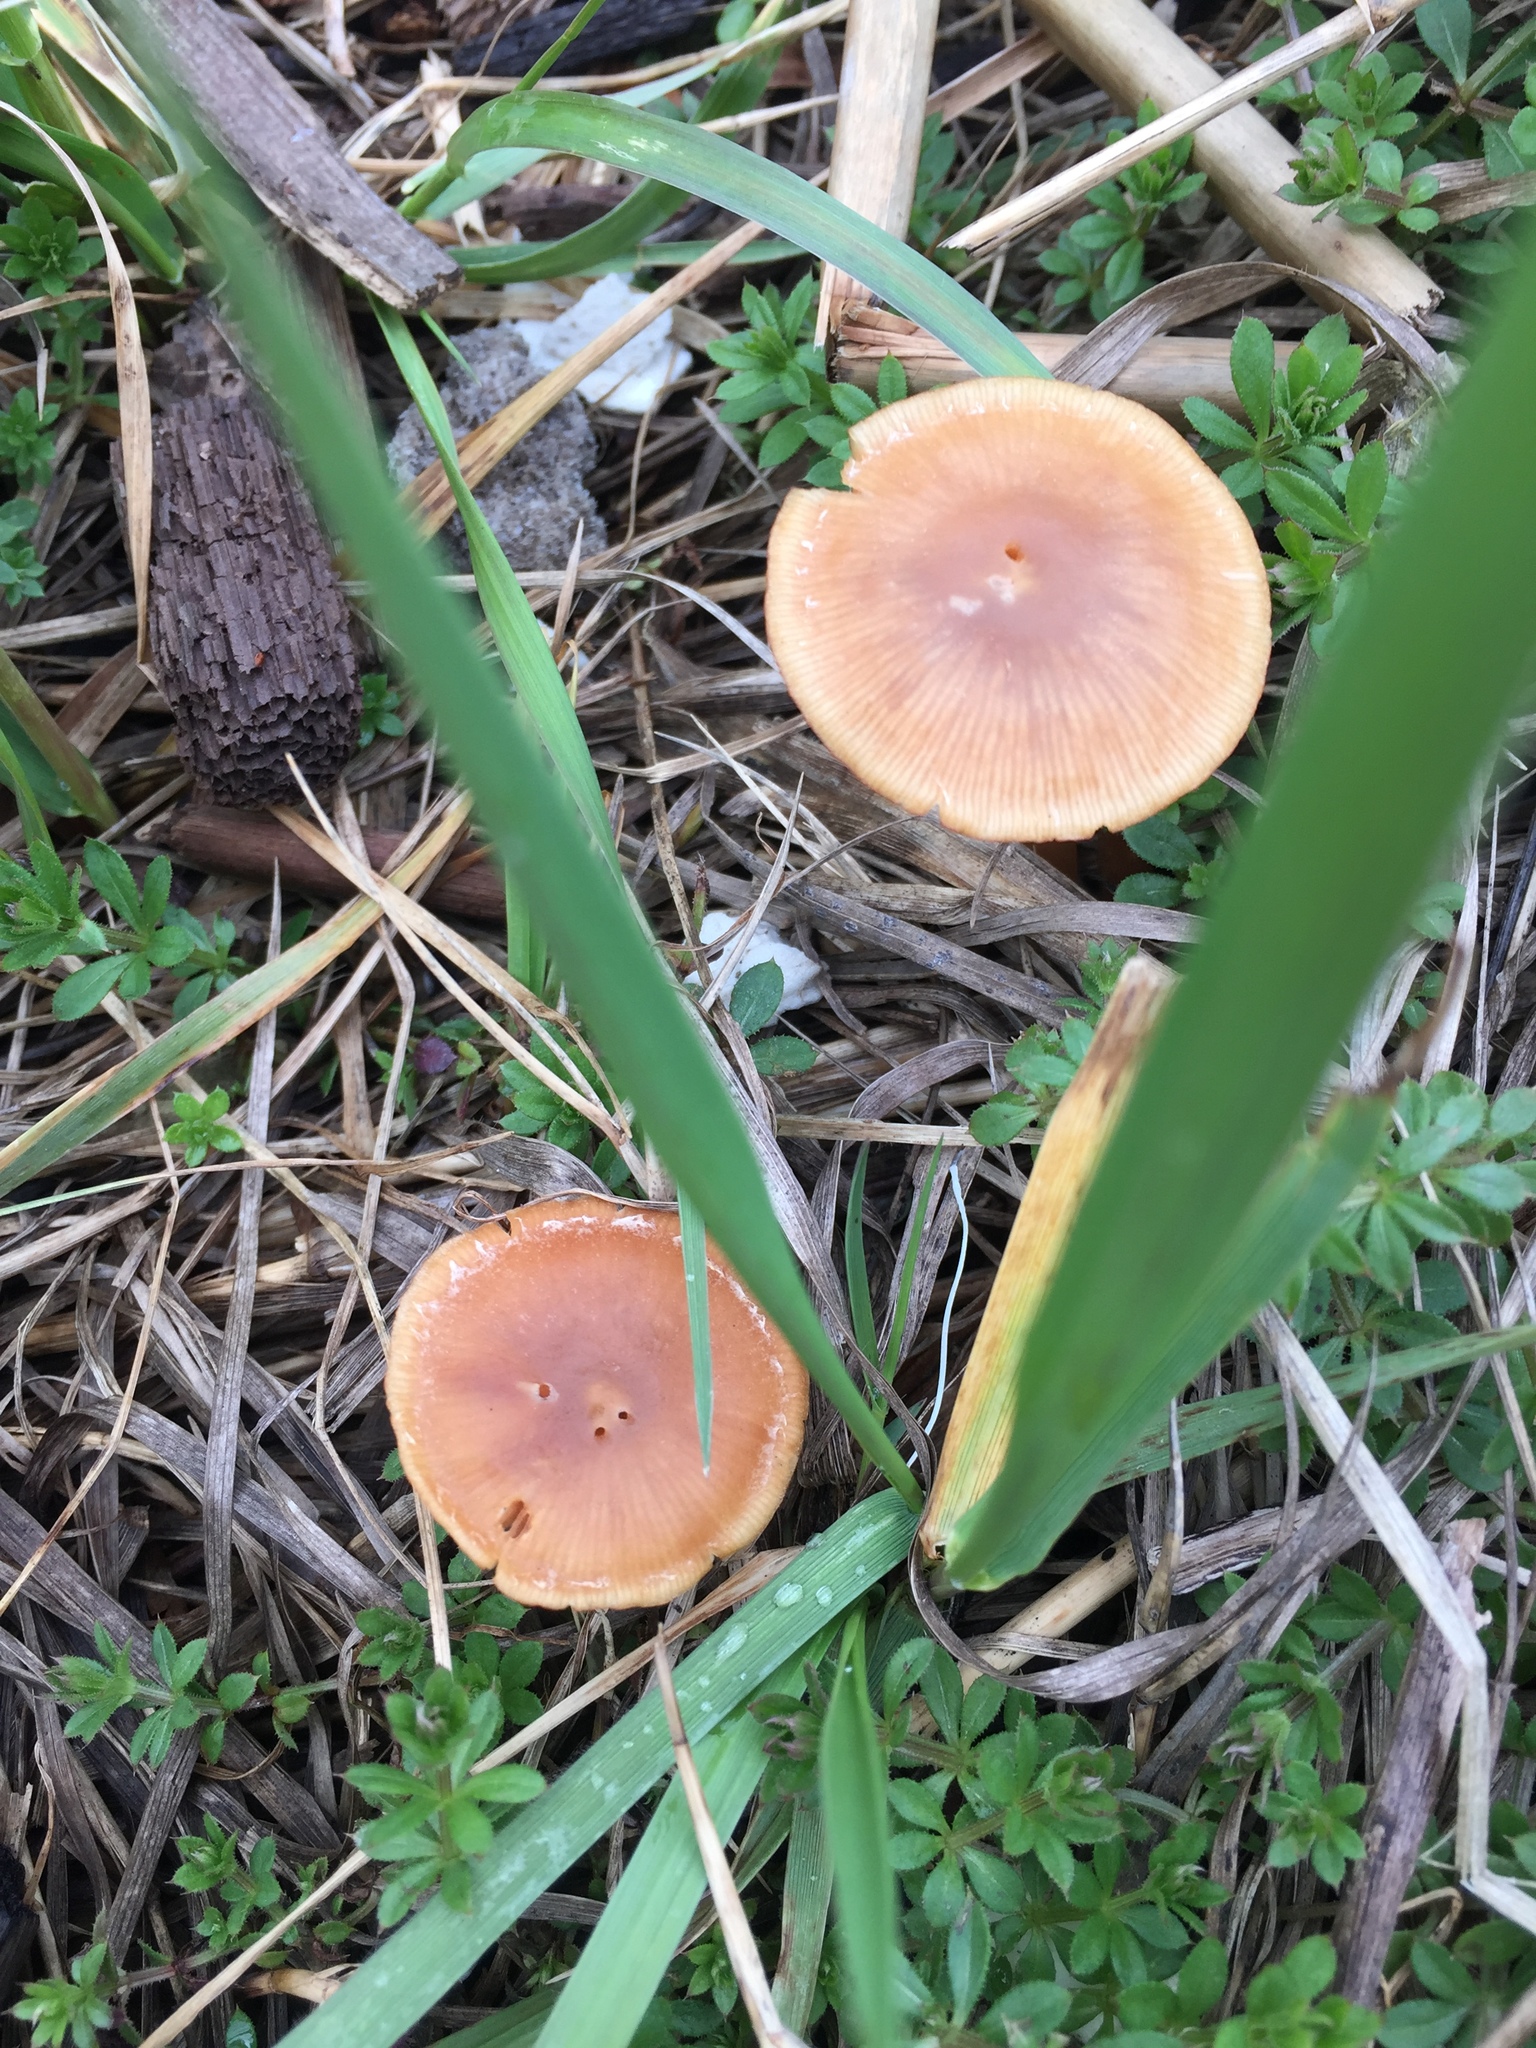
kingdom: Fungi
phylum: Basidiomycota
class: Agaricomycetes
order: Agaricales
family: Tubariaceae
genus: Tubaria
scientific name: Tubaria furfuracea
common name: Scurfy twiglet
